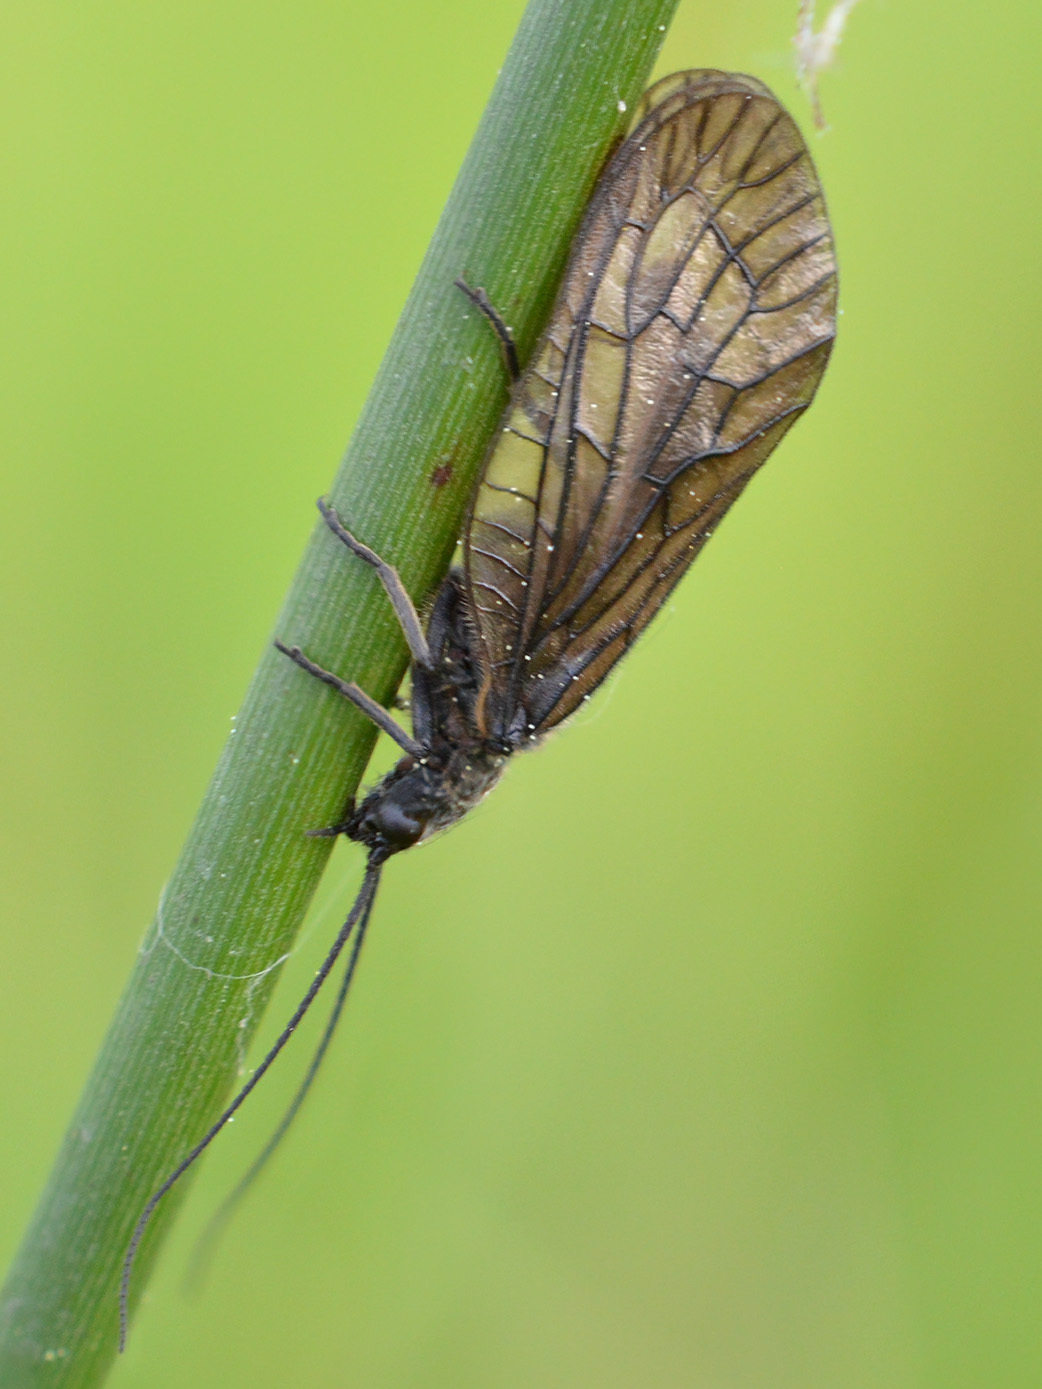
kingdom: Animalia
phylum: Arthropoda
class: Insecta
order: Megaloptera
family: Sialidae
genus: Sialis
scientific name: Sialis
